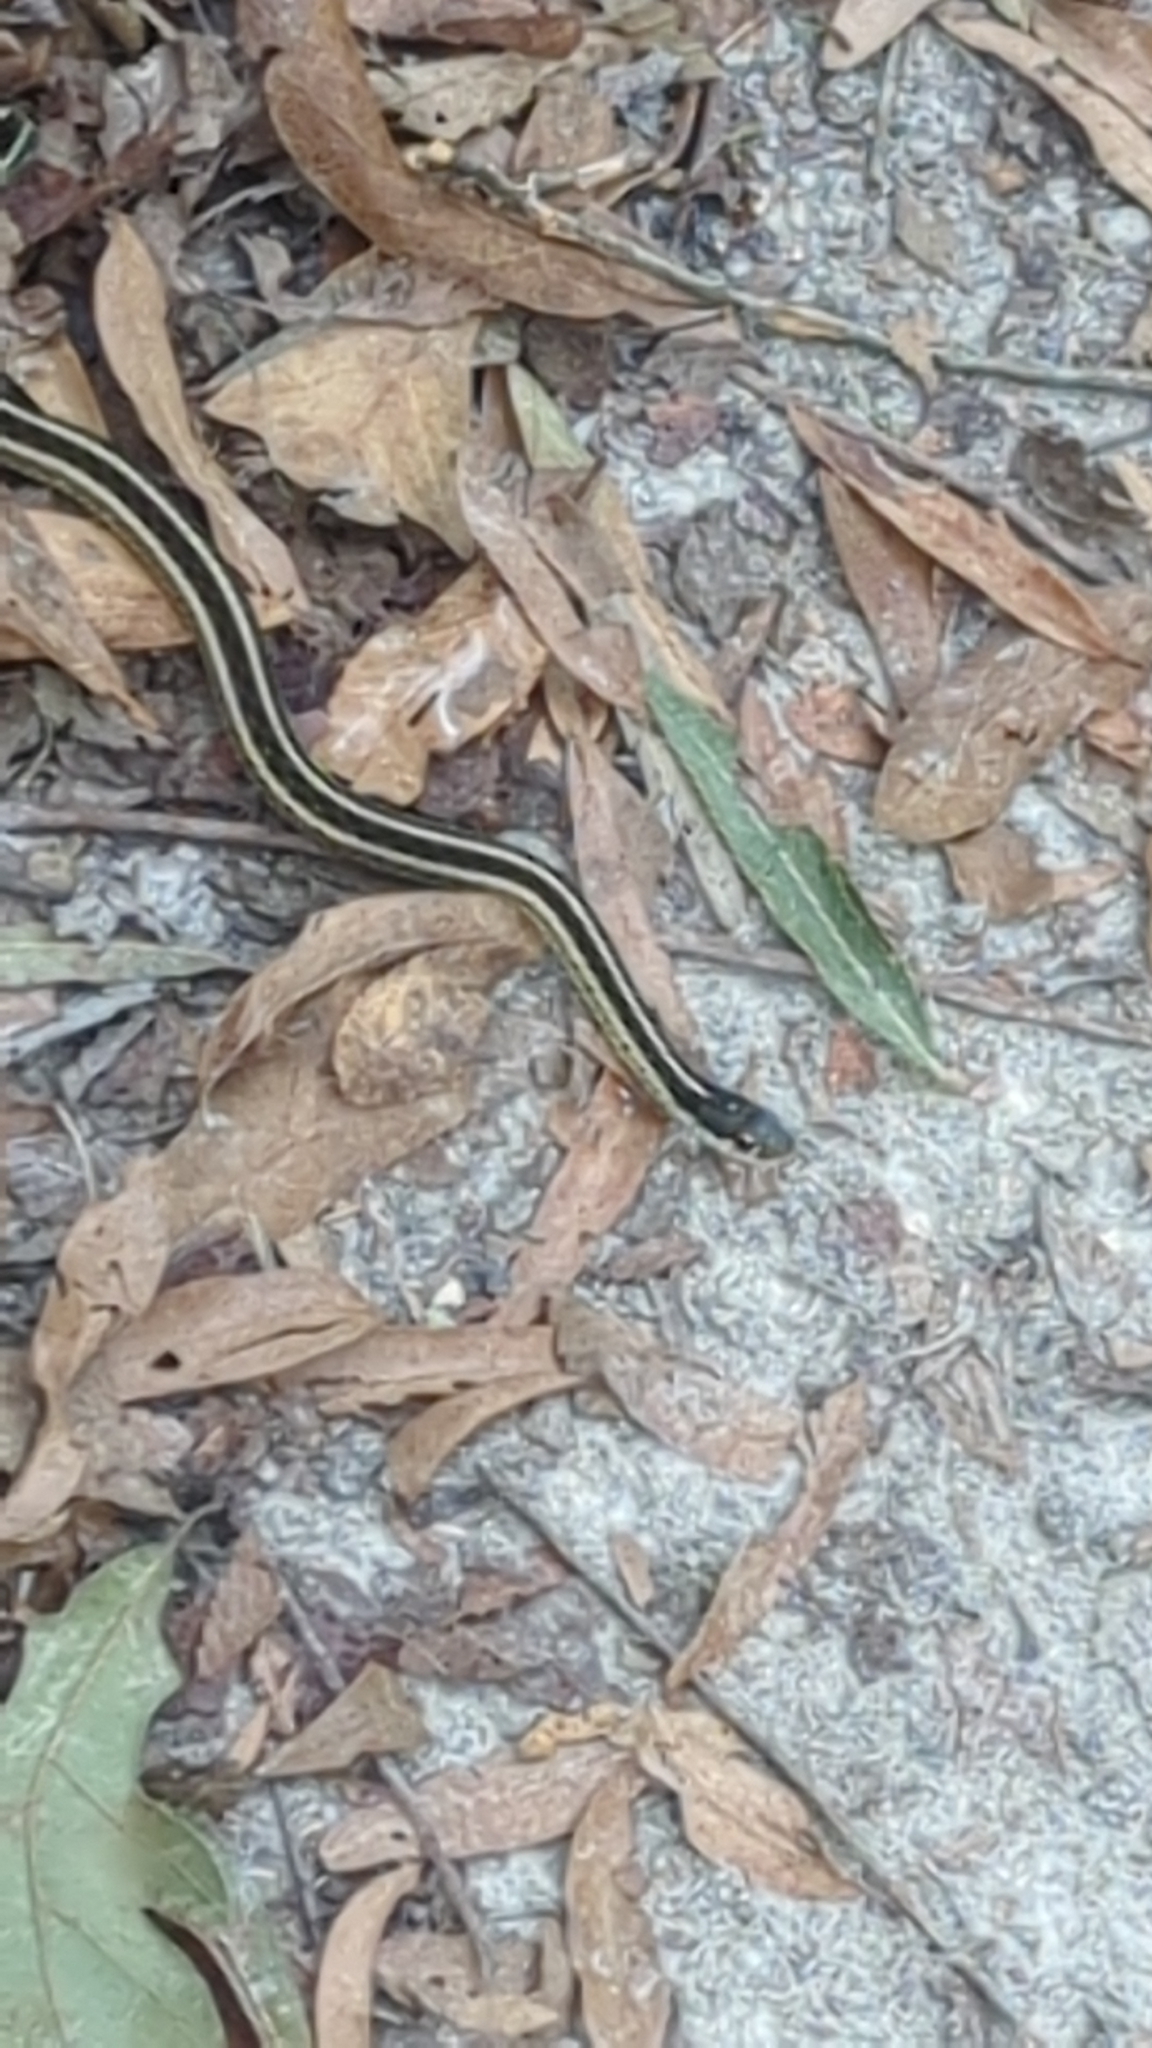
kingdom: Animalia
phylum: Chordata
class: Squamata
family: Colubridae
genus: Thamnophis
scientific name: Thamnophis sirtalis
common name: Common garter snake
